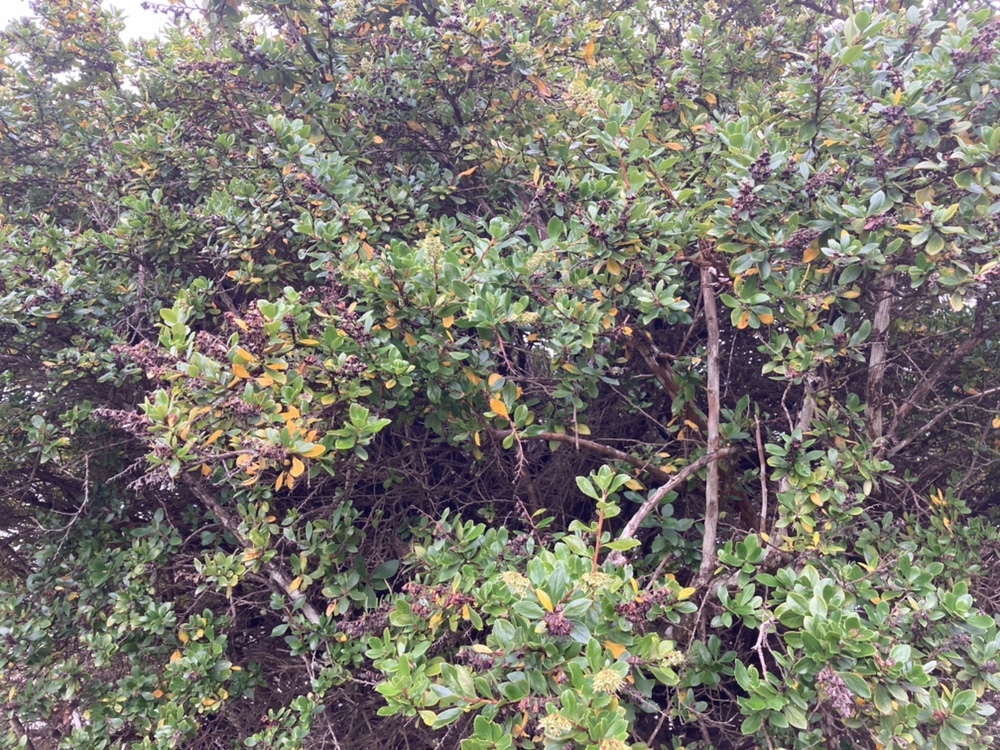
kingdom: Plantae
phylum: Tracheophyta
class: Magnoliopsida
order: Escalloniales
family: Escalloniaceae
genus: Escallonia
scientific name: Escallonia rubra
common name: Redclaws
